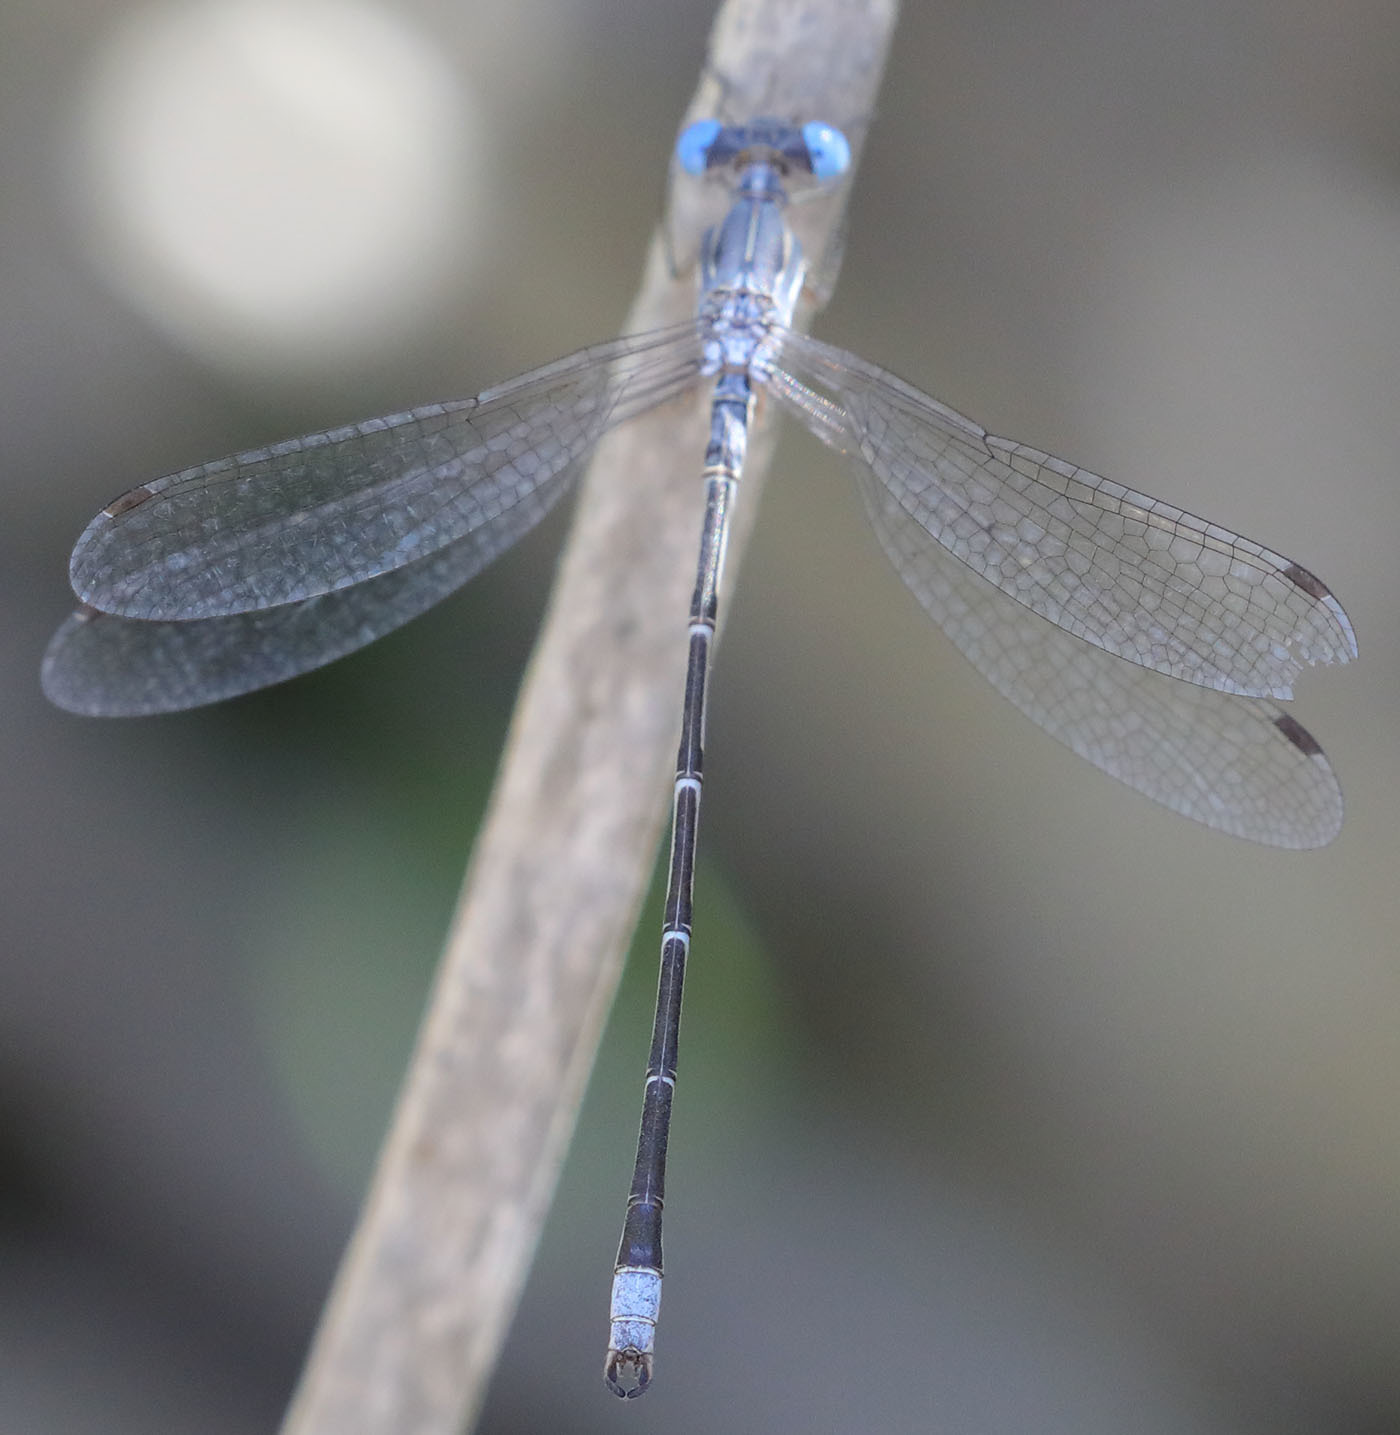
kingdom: Animalia
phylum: Arthropoda
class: Insecta
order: Odonata
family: Lestidae
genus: Lestes
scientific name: Lestes congener
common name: Spotted spreadwing
